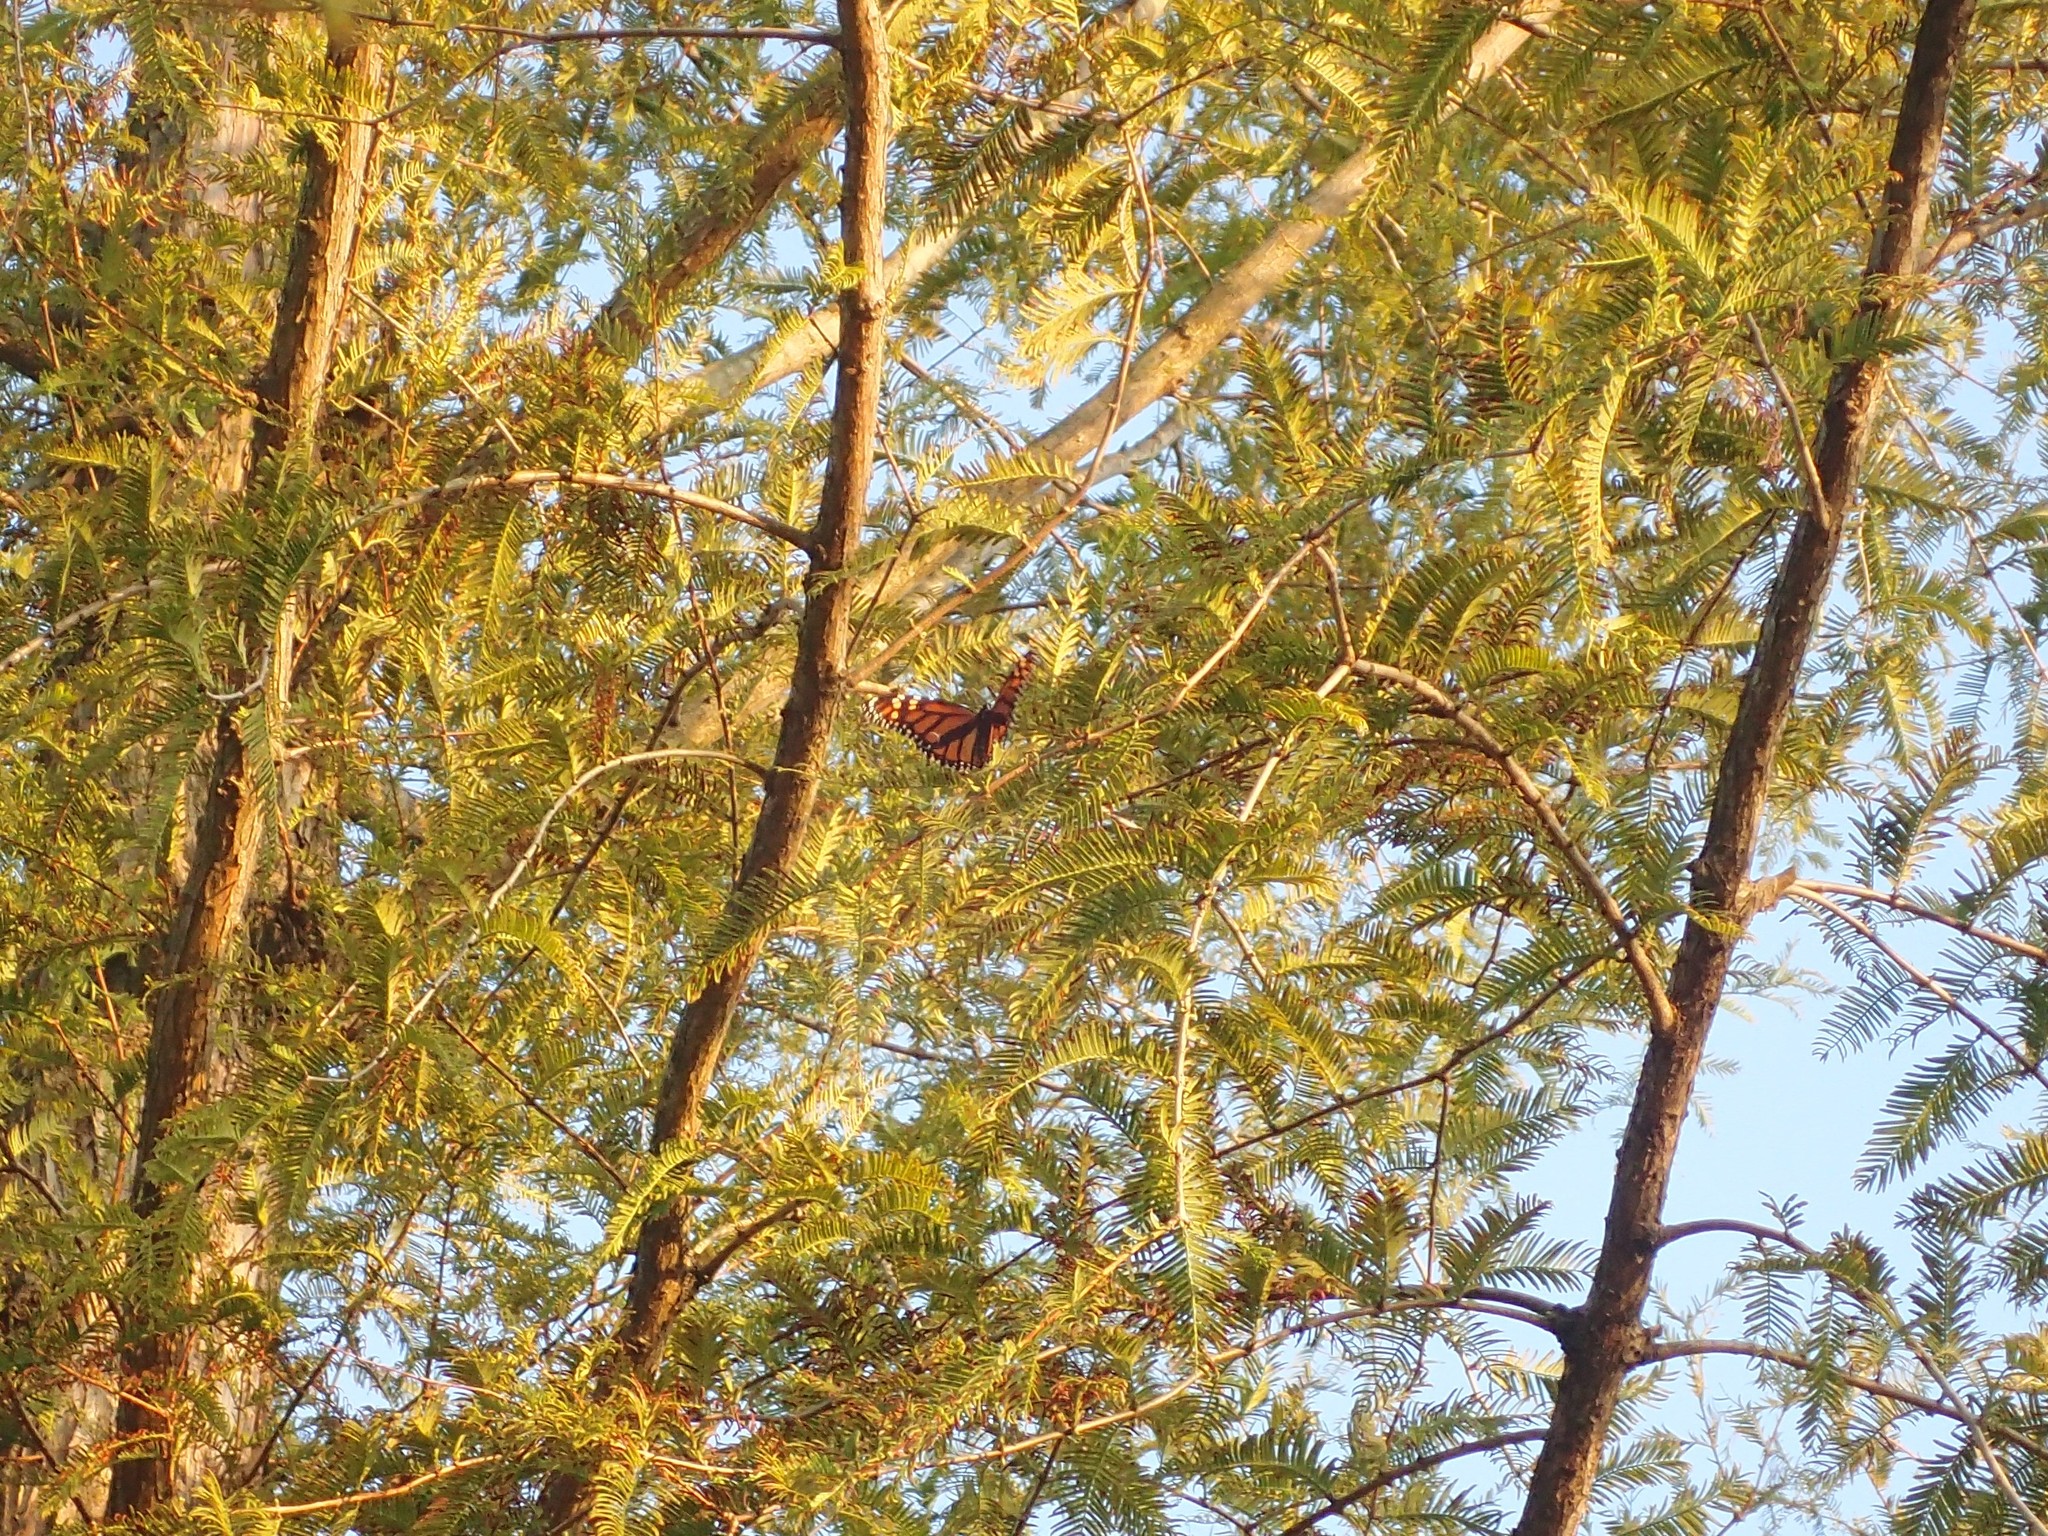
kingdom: Animalia
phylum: Arthropoda
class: Insecta
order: Lepidoptera
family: Nymphalidae
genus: Danaus
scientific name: Danaus plexippus
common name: Monarch
